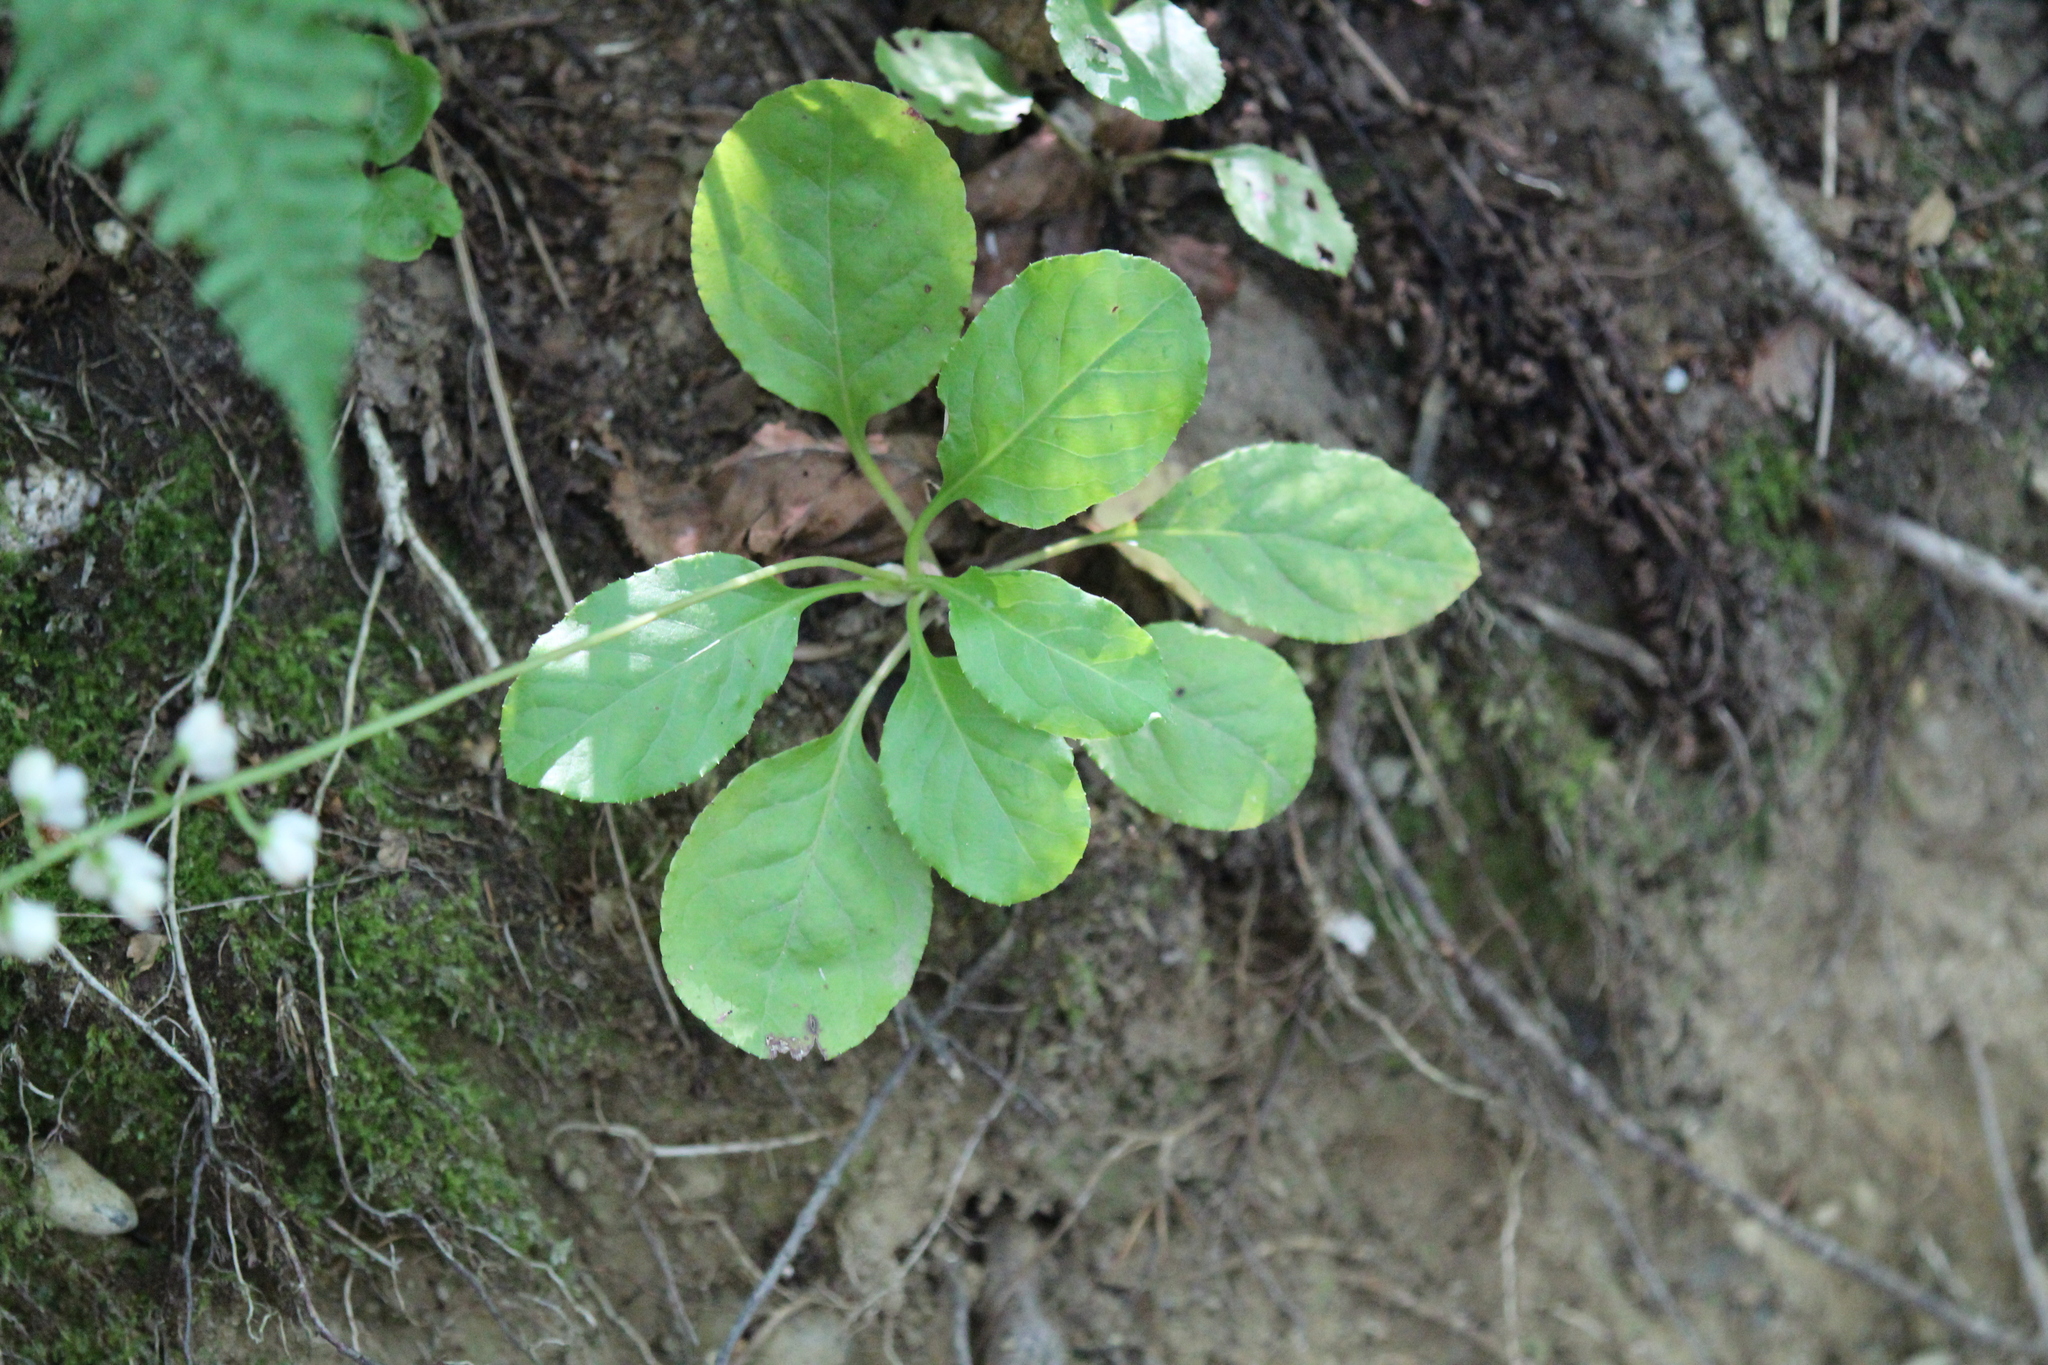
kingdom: Plantae
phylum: Tracheophyta
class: Magnoliopsida
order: Ericales
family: Ericaceae
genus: Pyrola
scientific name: Pyrola elliptica
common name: Shinleaf
